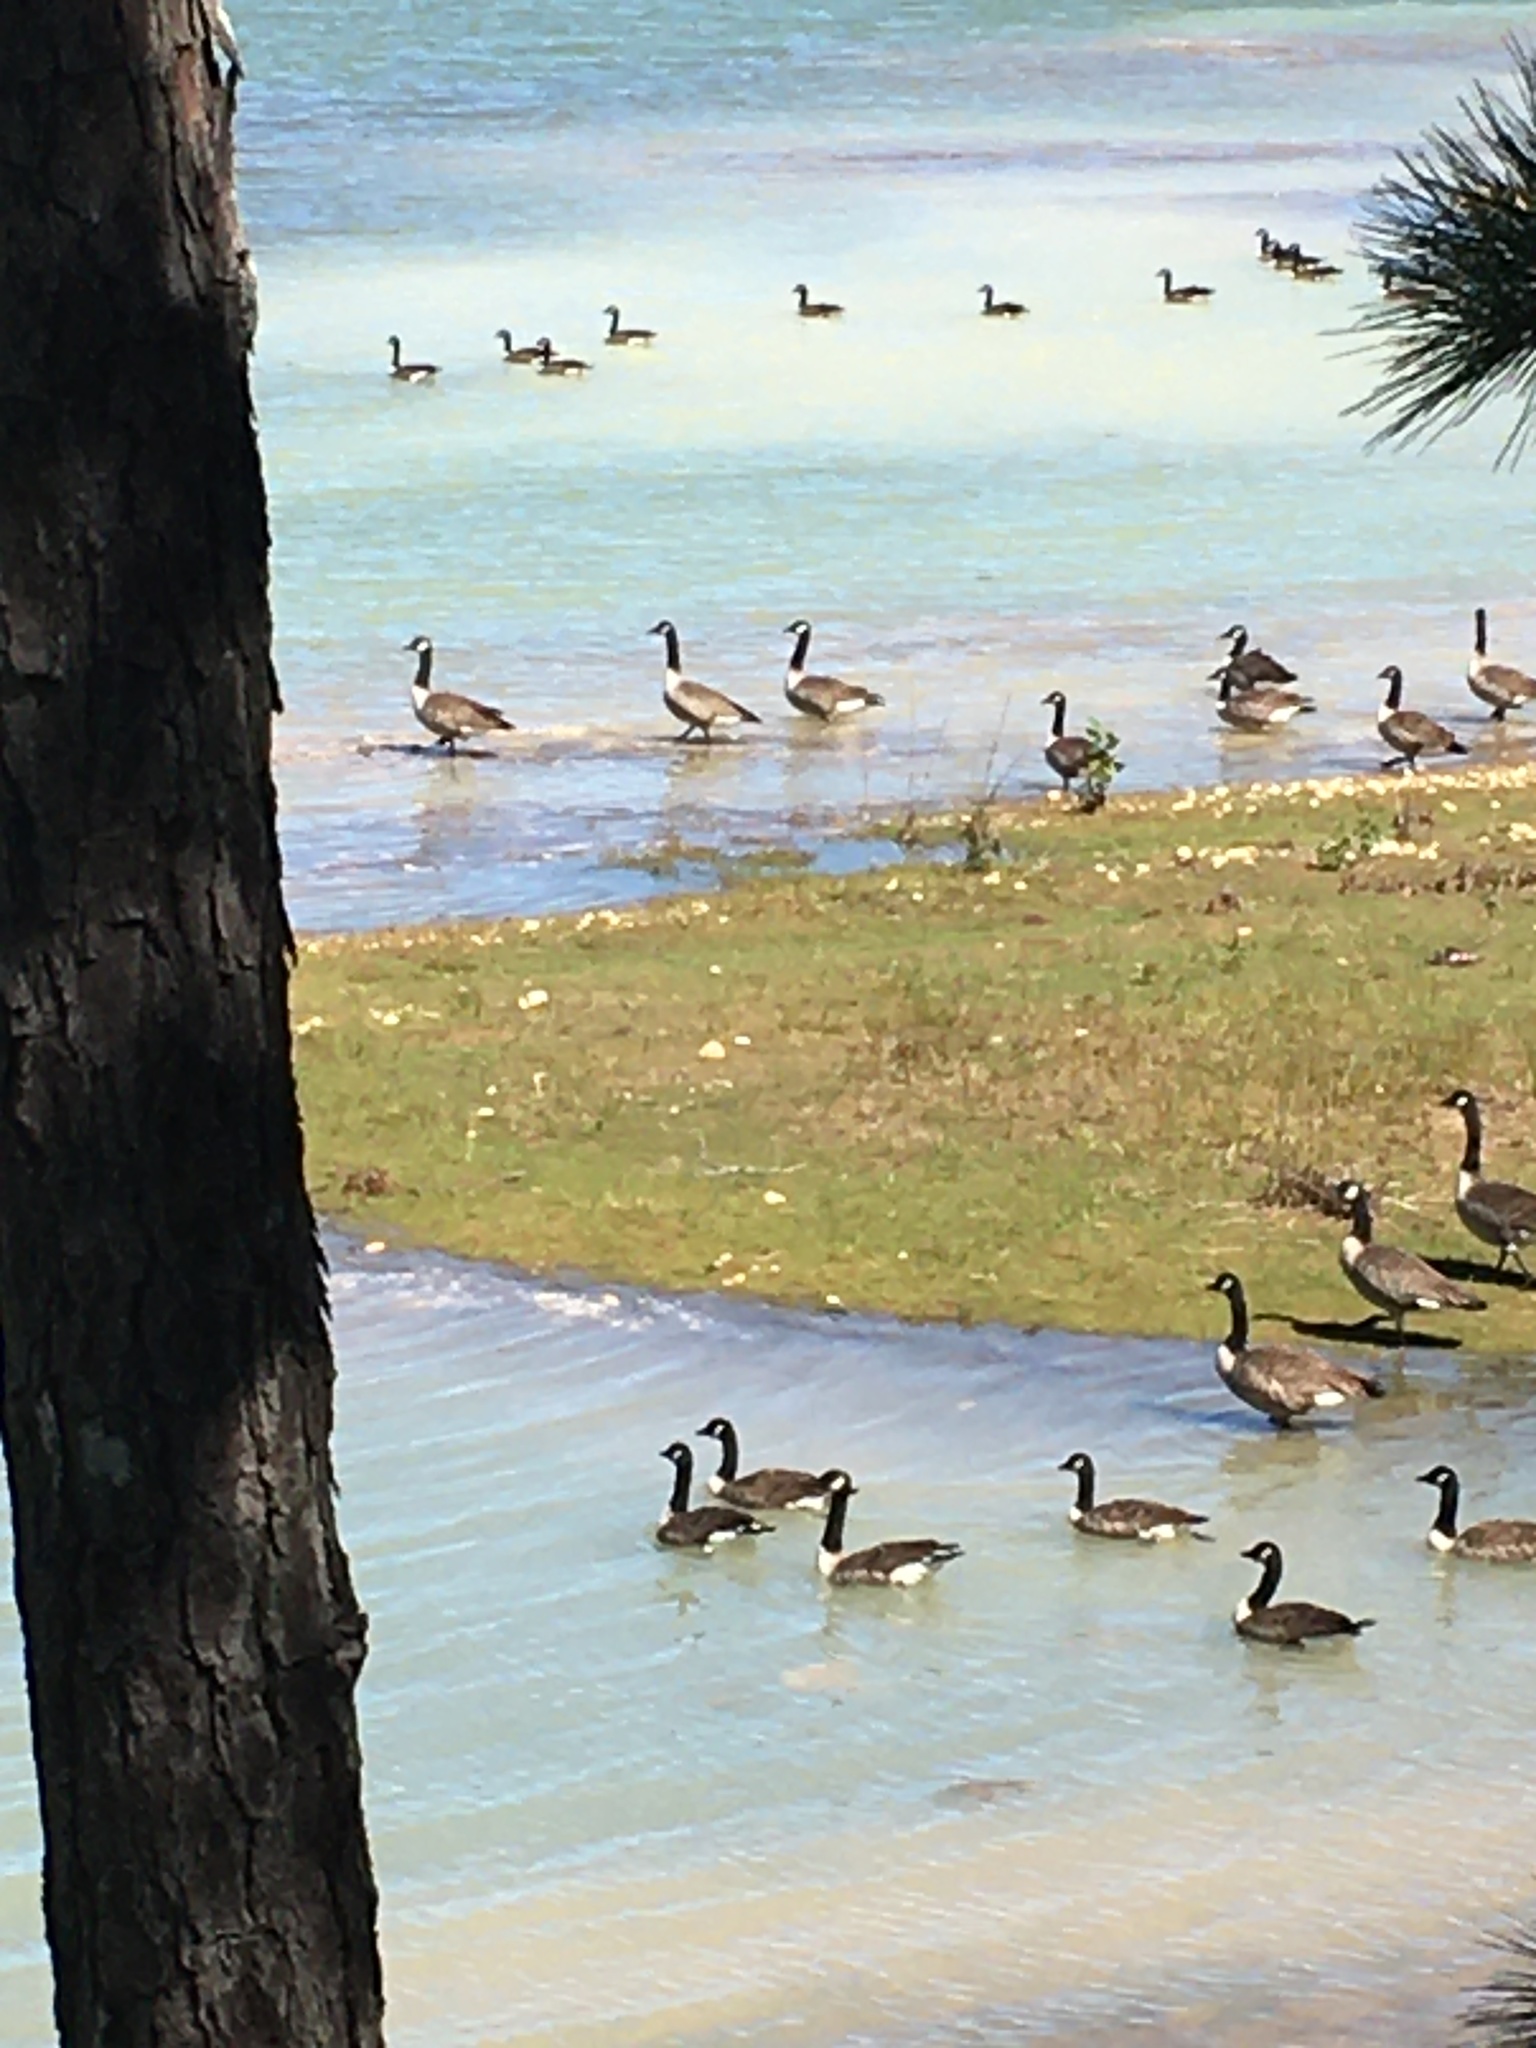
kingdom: Animalia
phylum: Chordata
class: Aves
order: Anseriformes
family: Anatidae
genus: Branta
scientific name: Branta canadensis
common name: Canada goose
